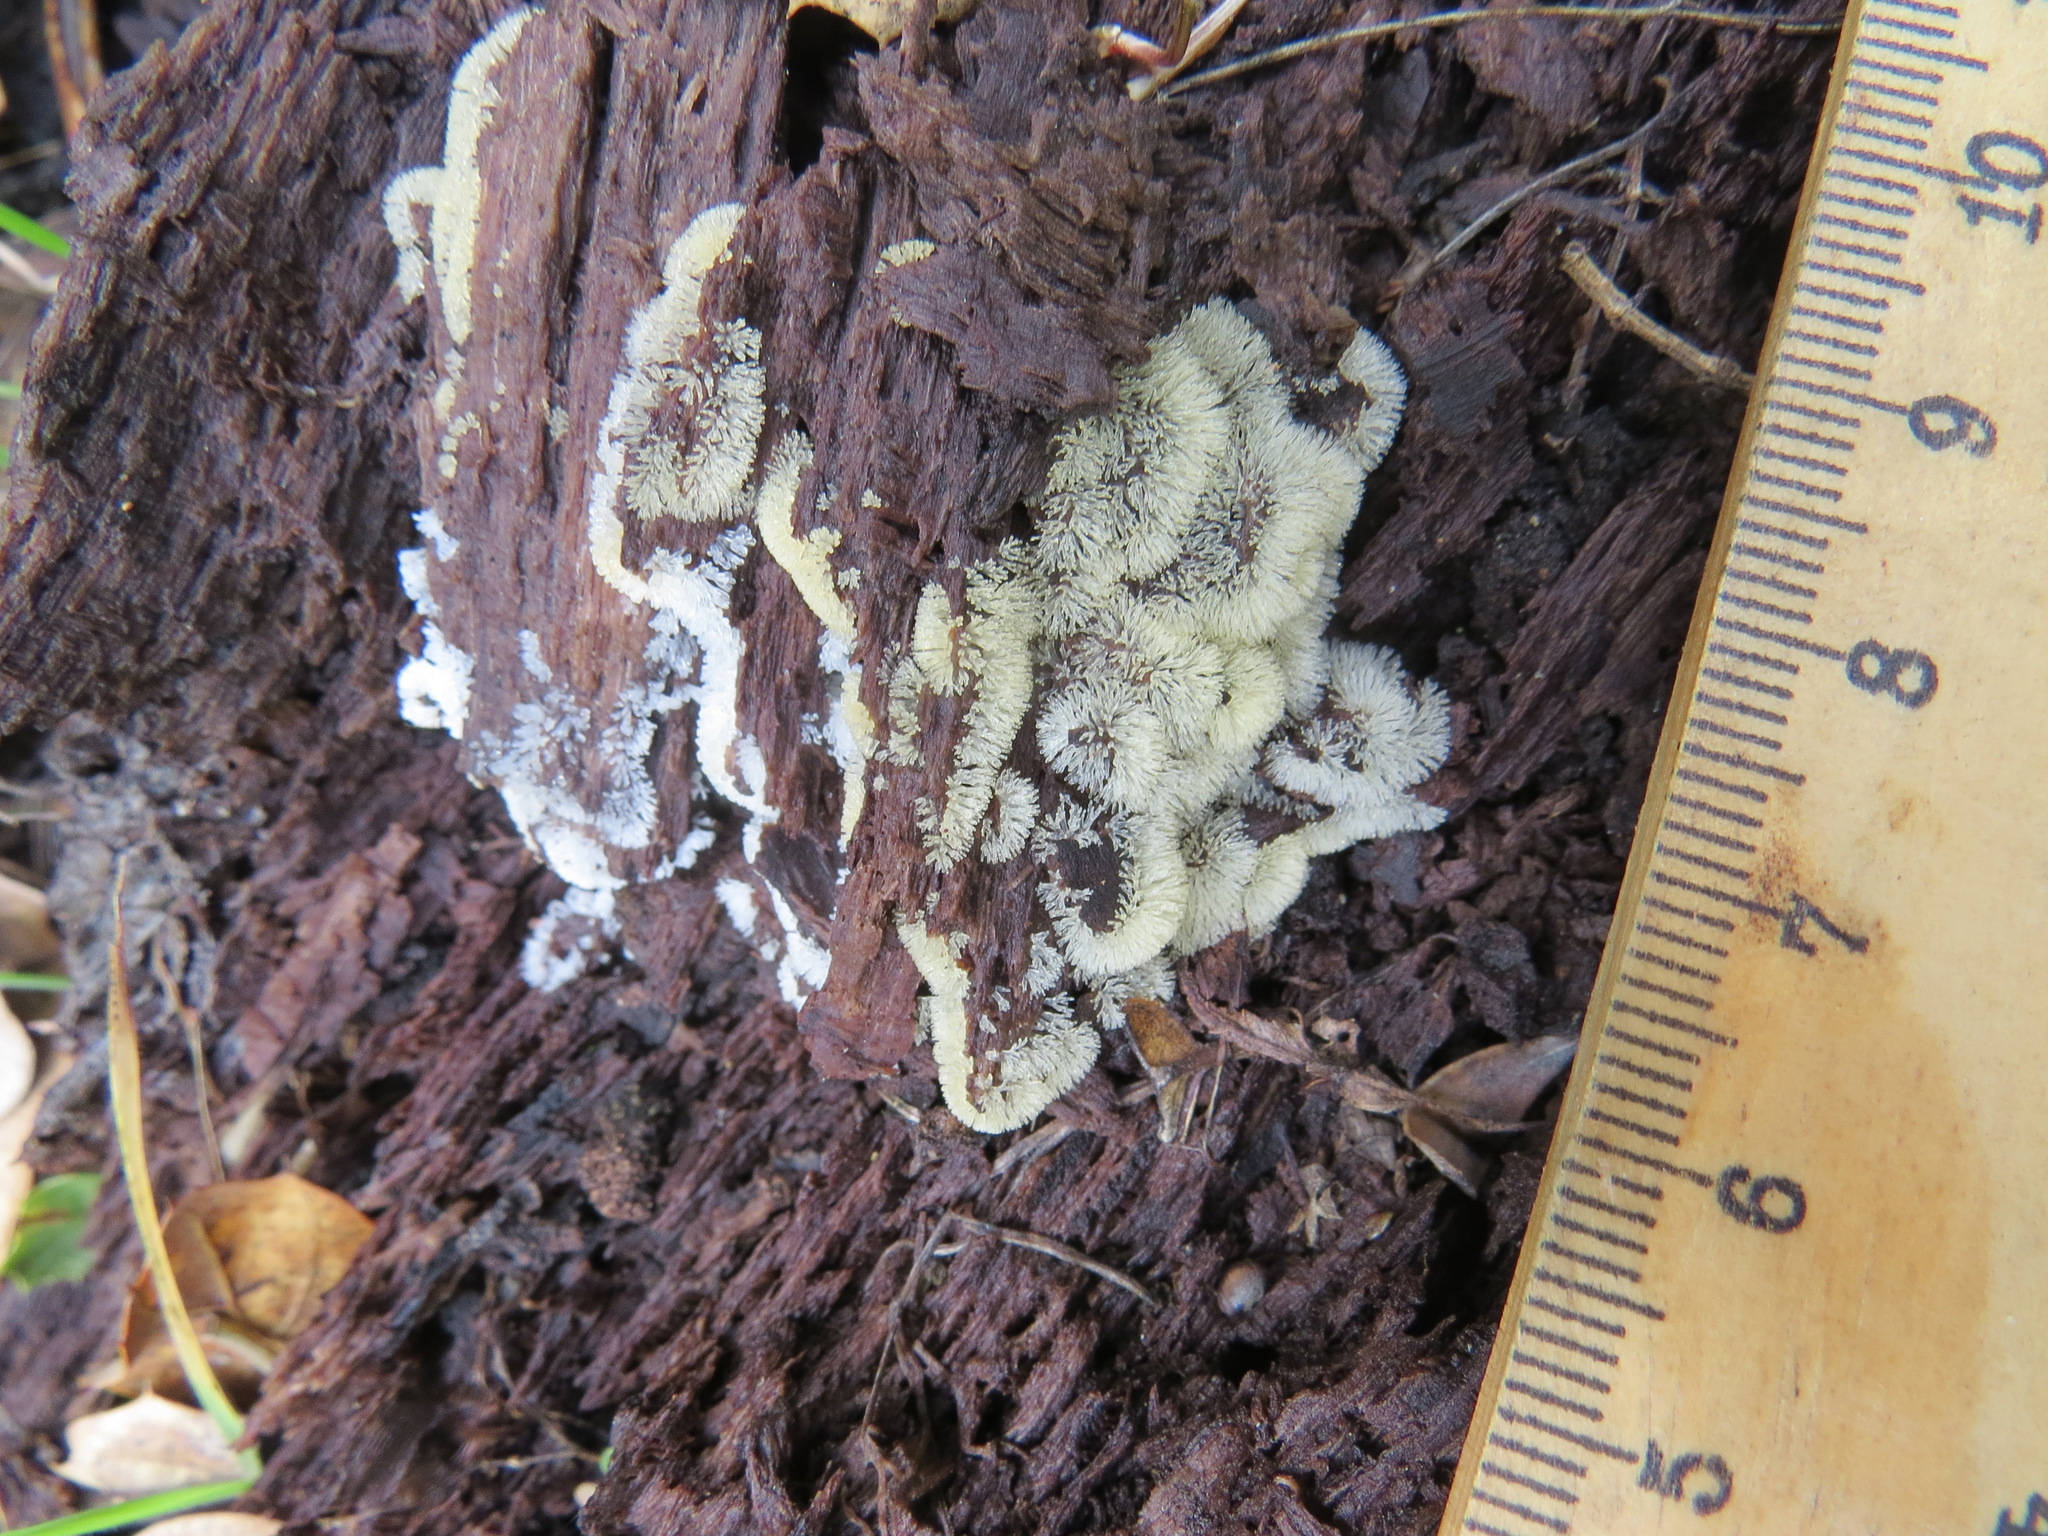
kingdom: Protozoa
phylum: Mycetozoa
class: Protosteliomycetes
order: Ceratiomyxales
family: Ceratiomyxaceae
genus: Ceratiomyxa
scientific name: Ceratiomyxa fruticulosa
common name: Honeycomb coral slime mold
